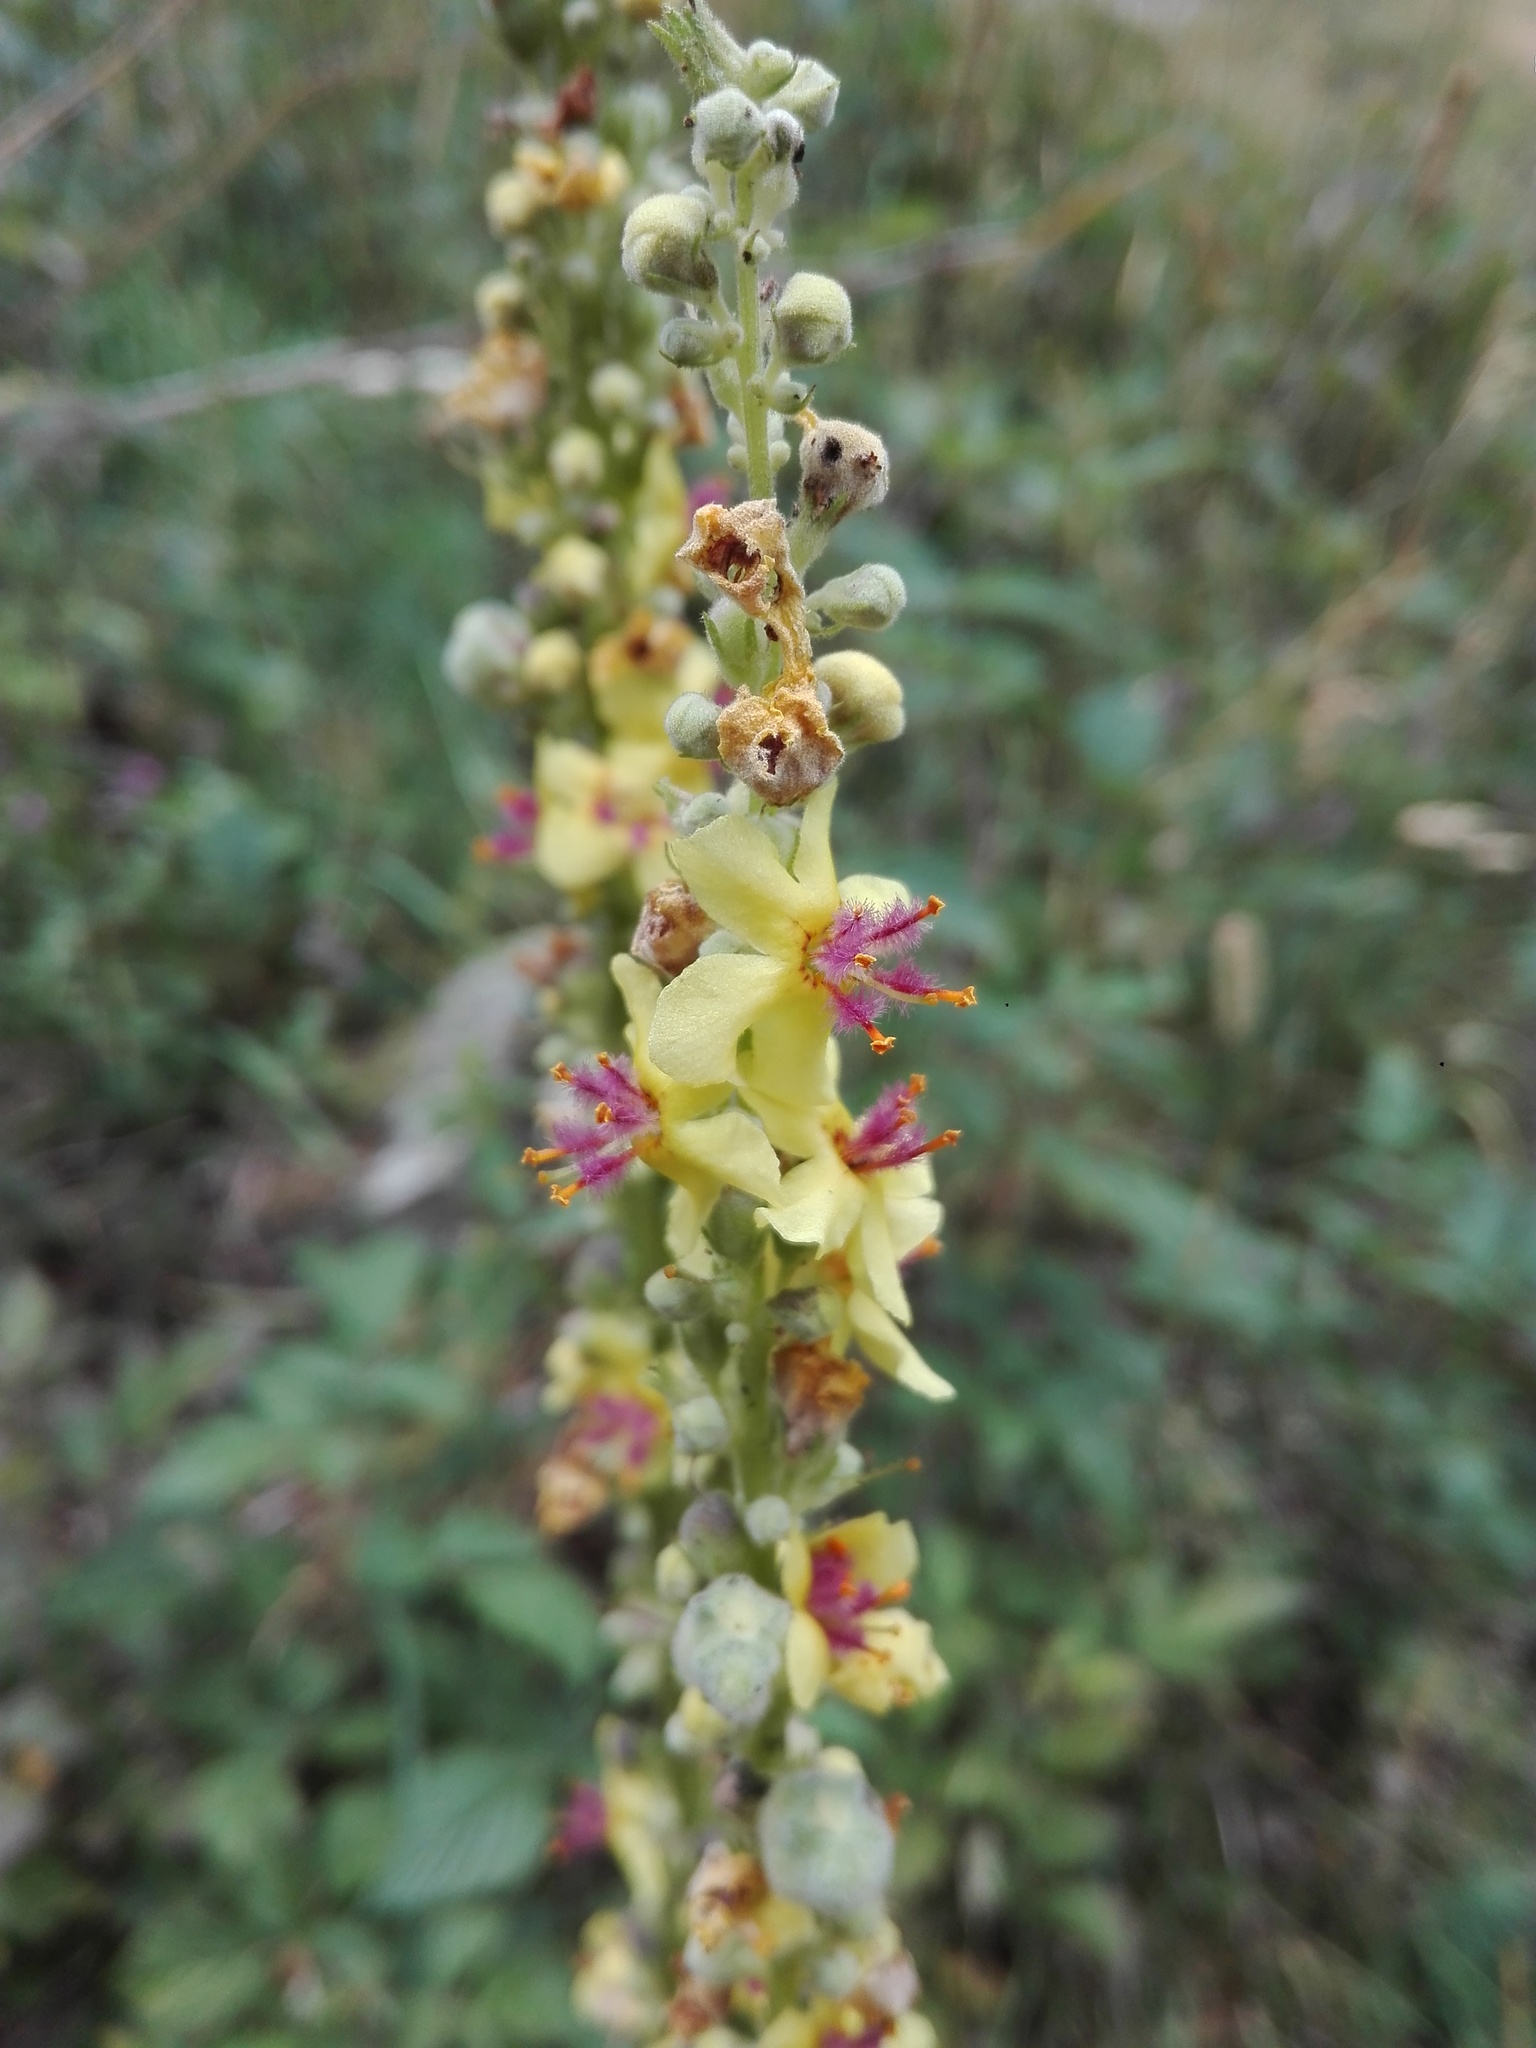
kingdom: Plantae
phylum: Tracheophyta
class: Magnoliopsida
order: Lamiales
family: Scrophulariaceae
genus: Verbascum
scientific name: Verbascum nigrum
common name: Dark mullein
